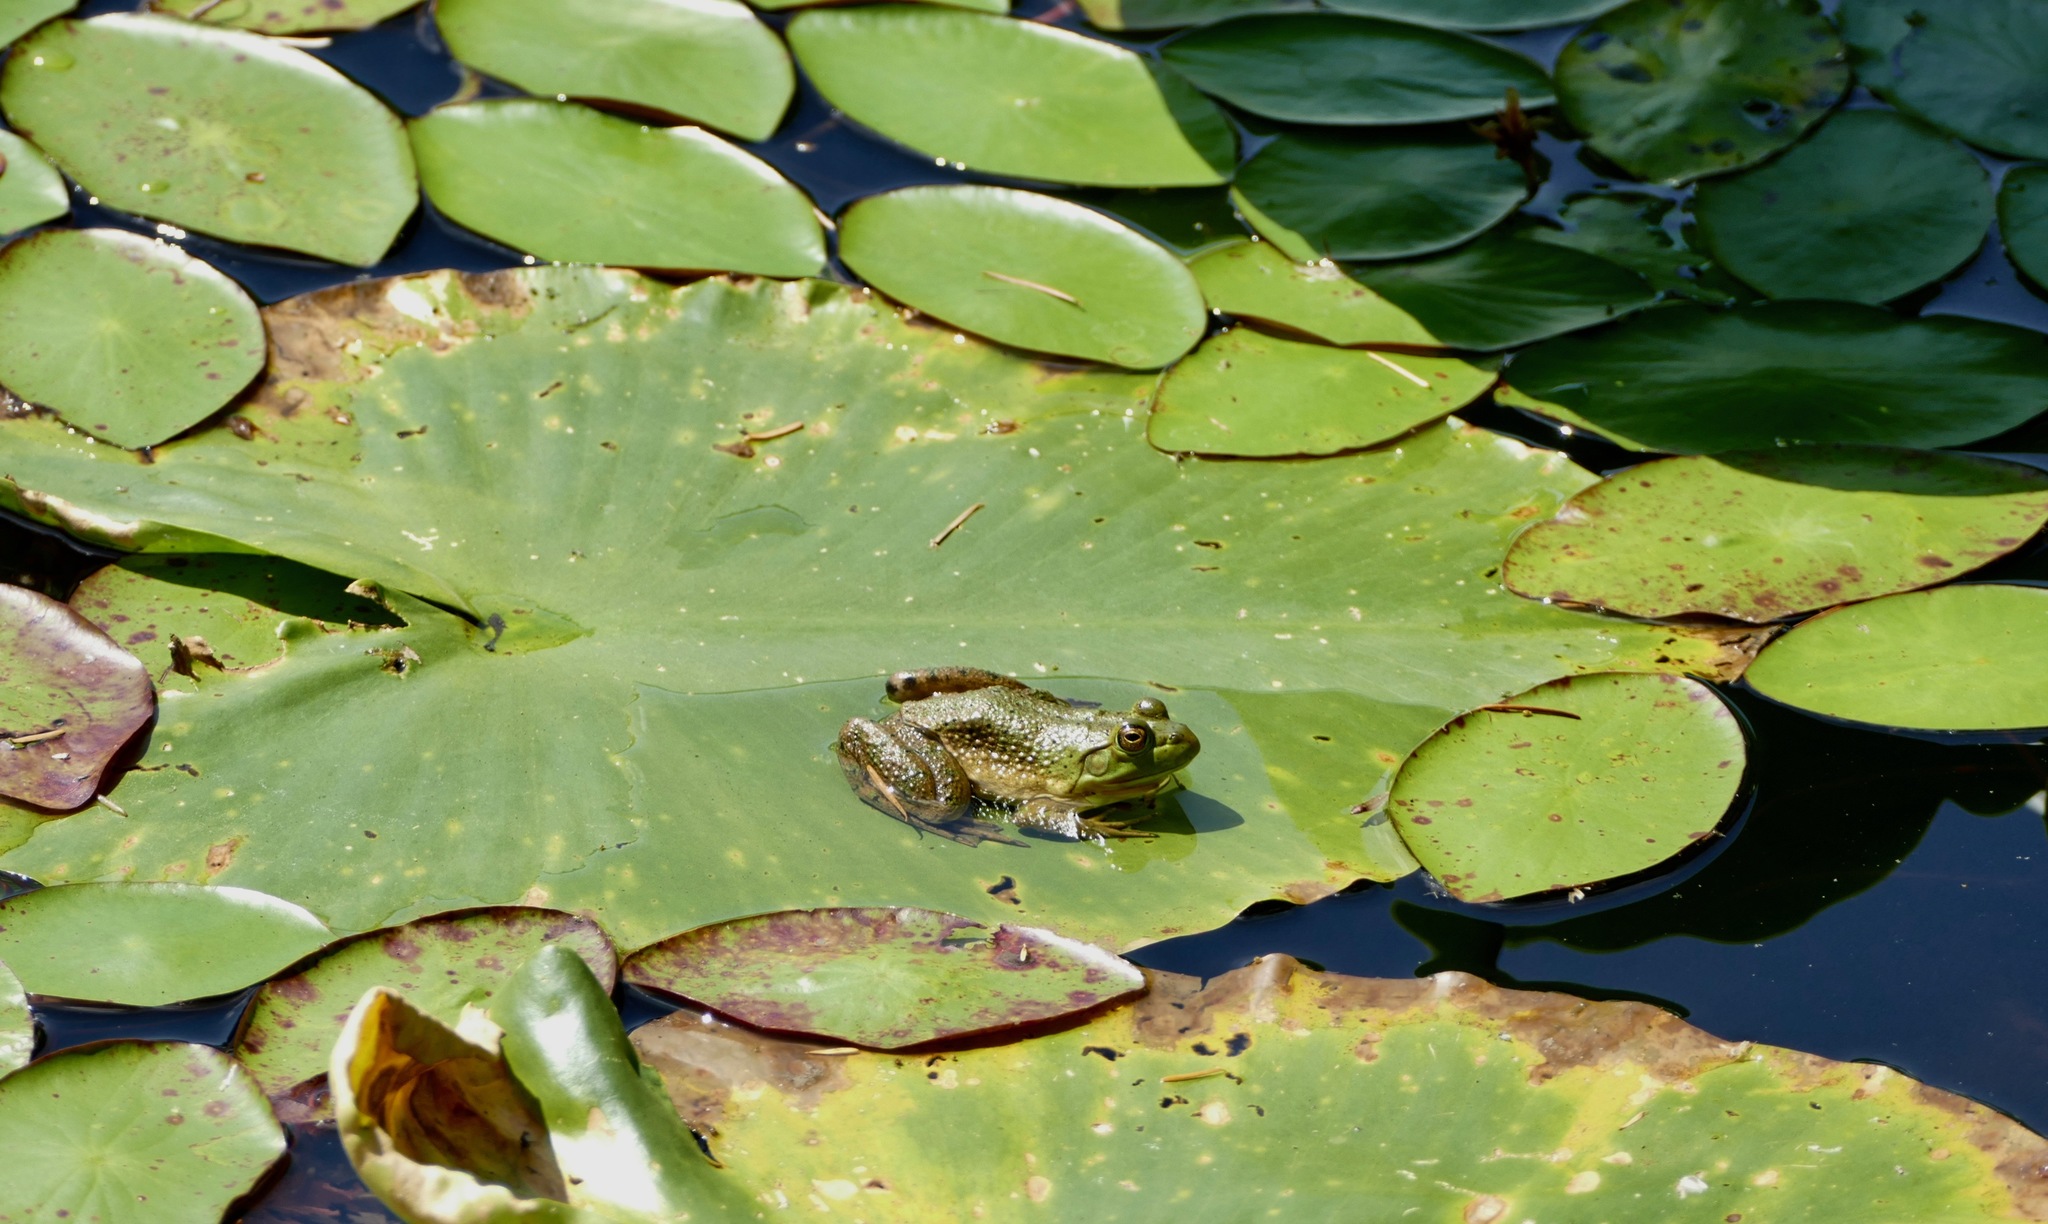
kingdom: Animalia
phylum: Chordata
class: Amphibia
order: Anura
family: Ranidae
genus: Lithobates
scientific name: Lithobates catesbeianus
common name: American bullfrog
